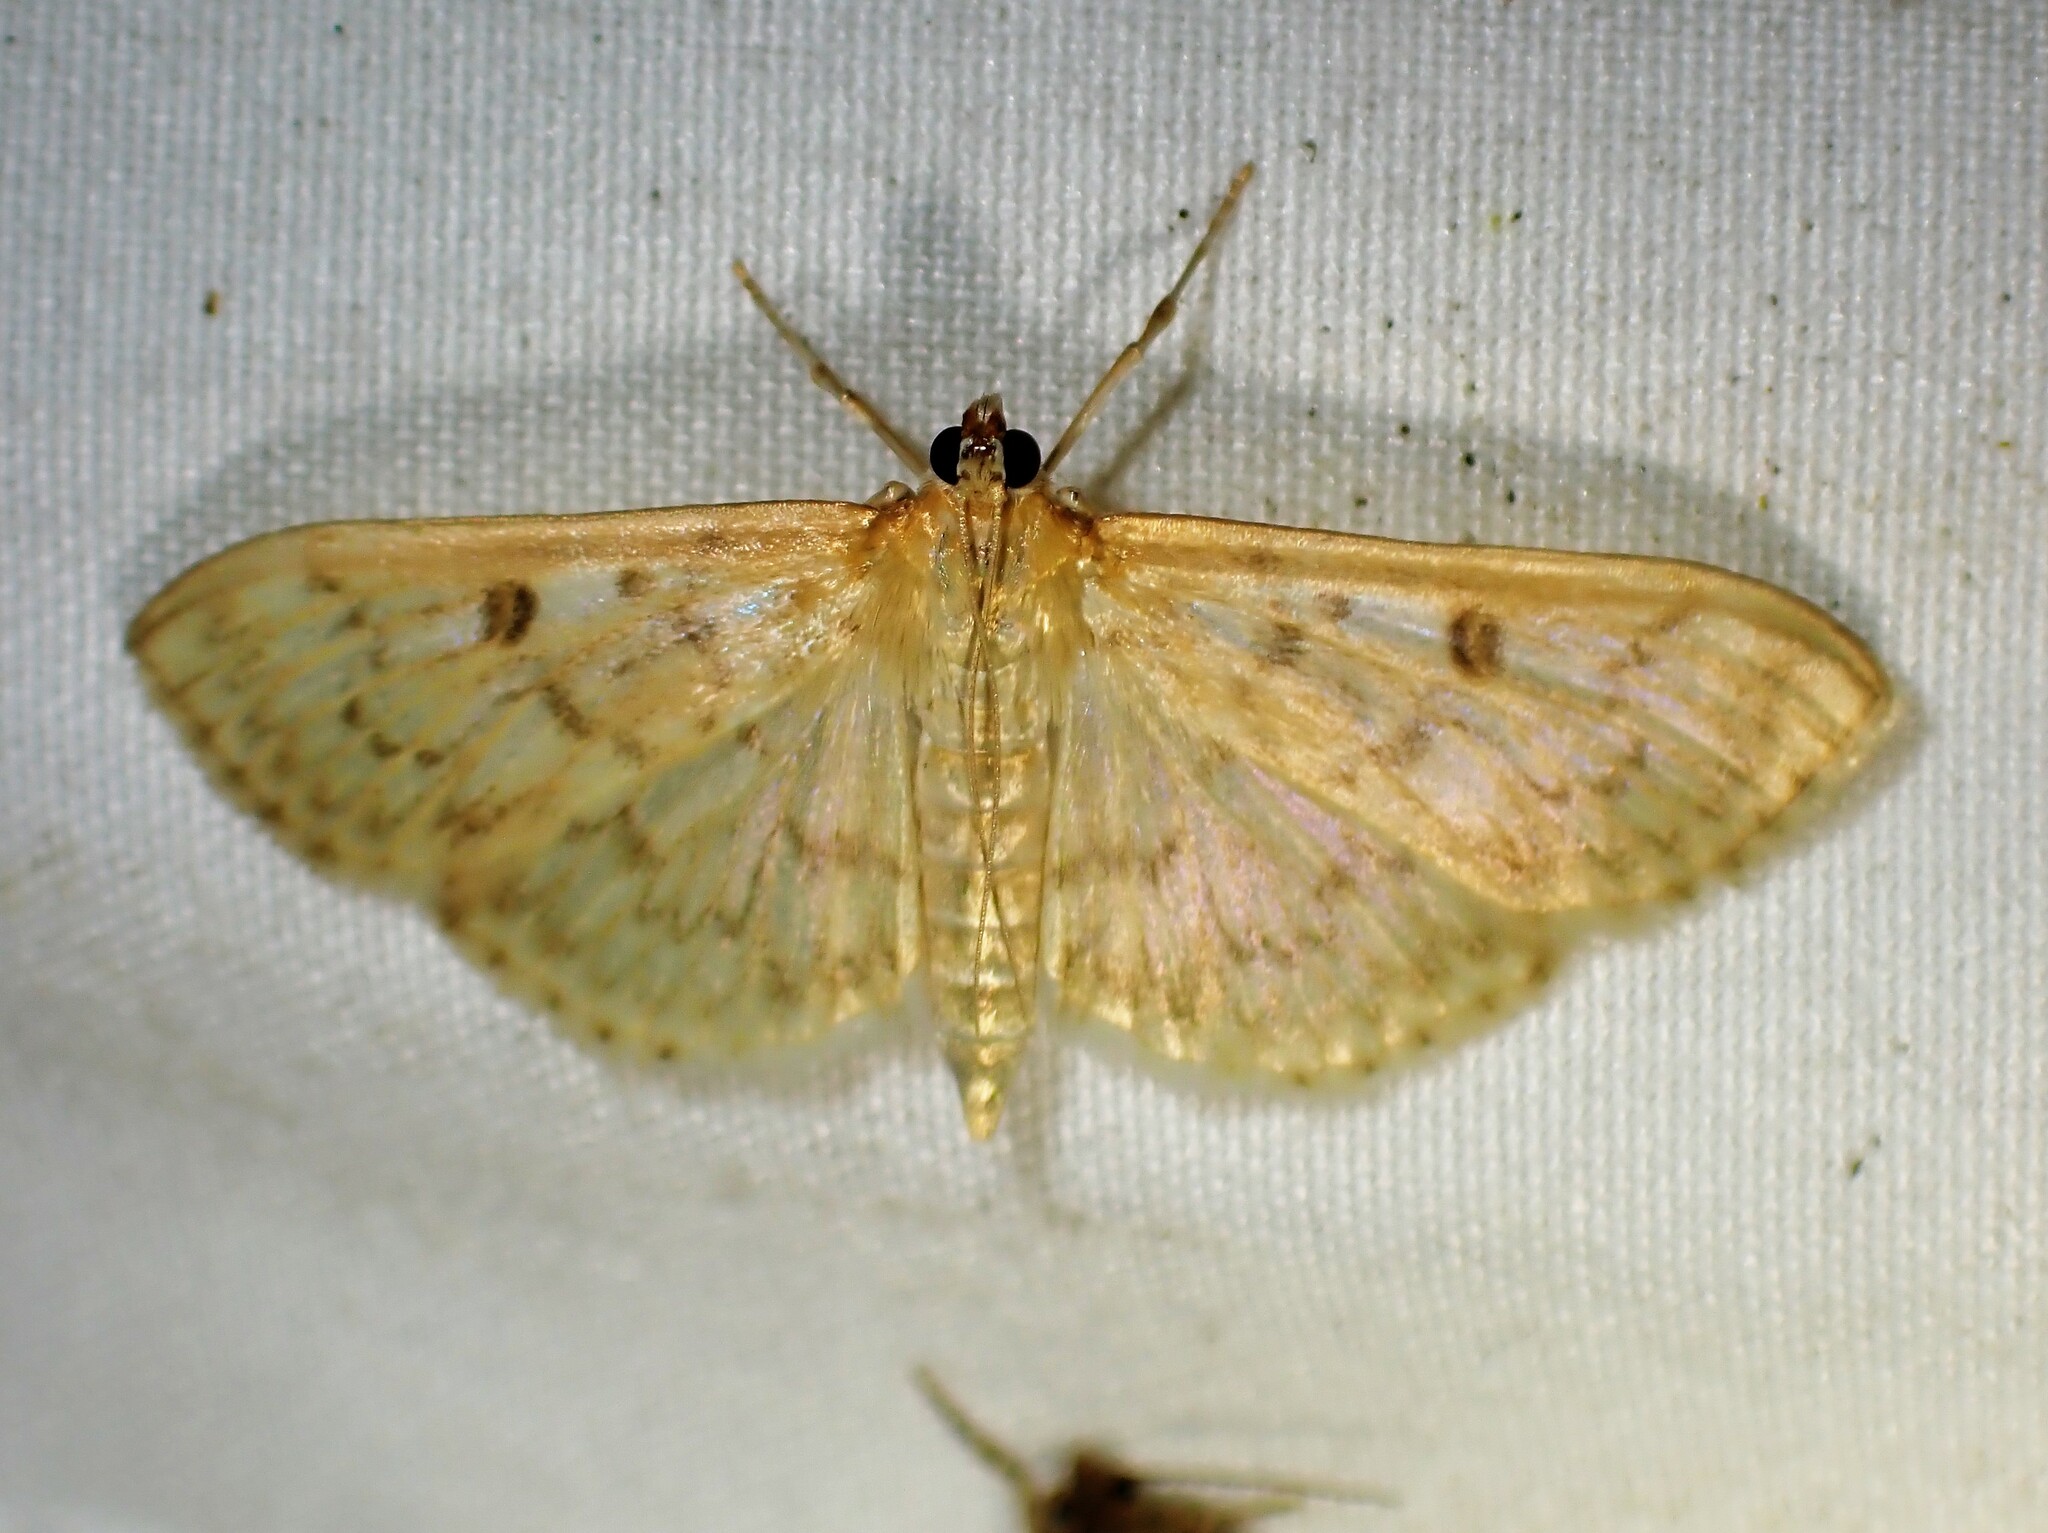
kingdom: Animalia
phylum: Arthropoda
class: Insecta
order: Lepidoptera
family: Crambidae
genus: Herpetogramma
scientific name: Herpetogramma aquilonalis
